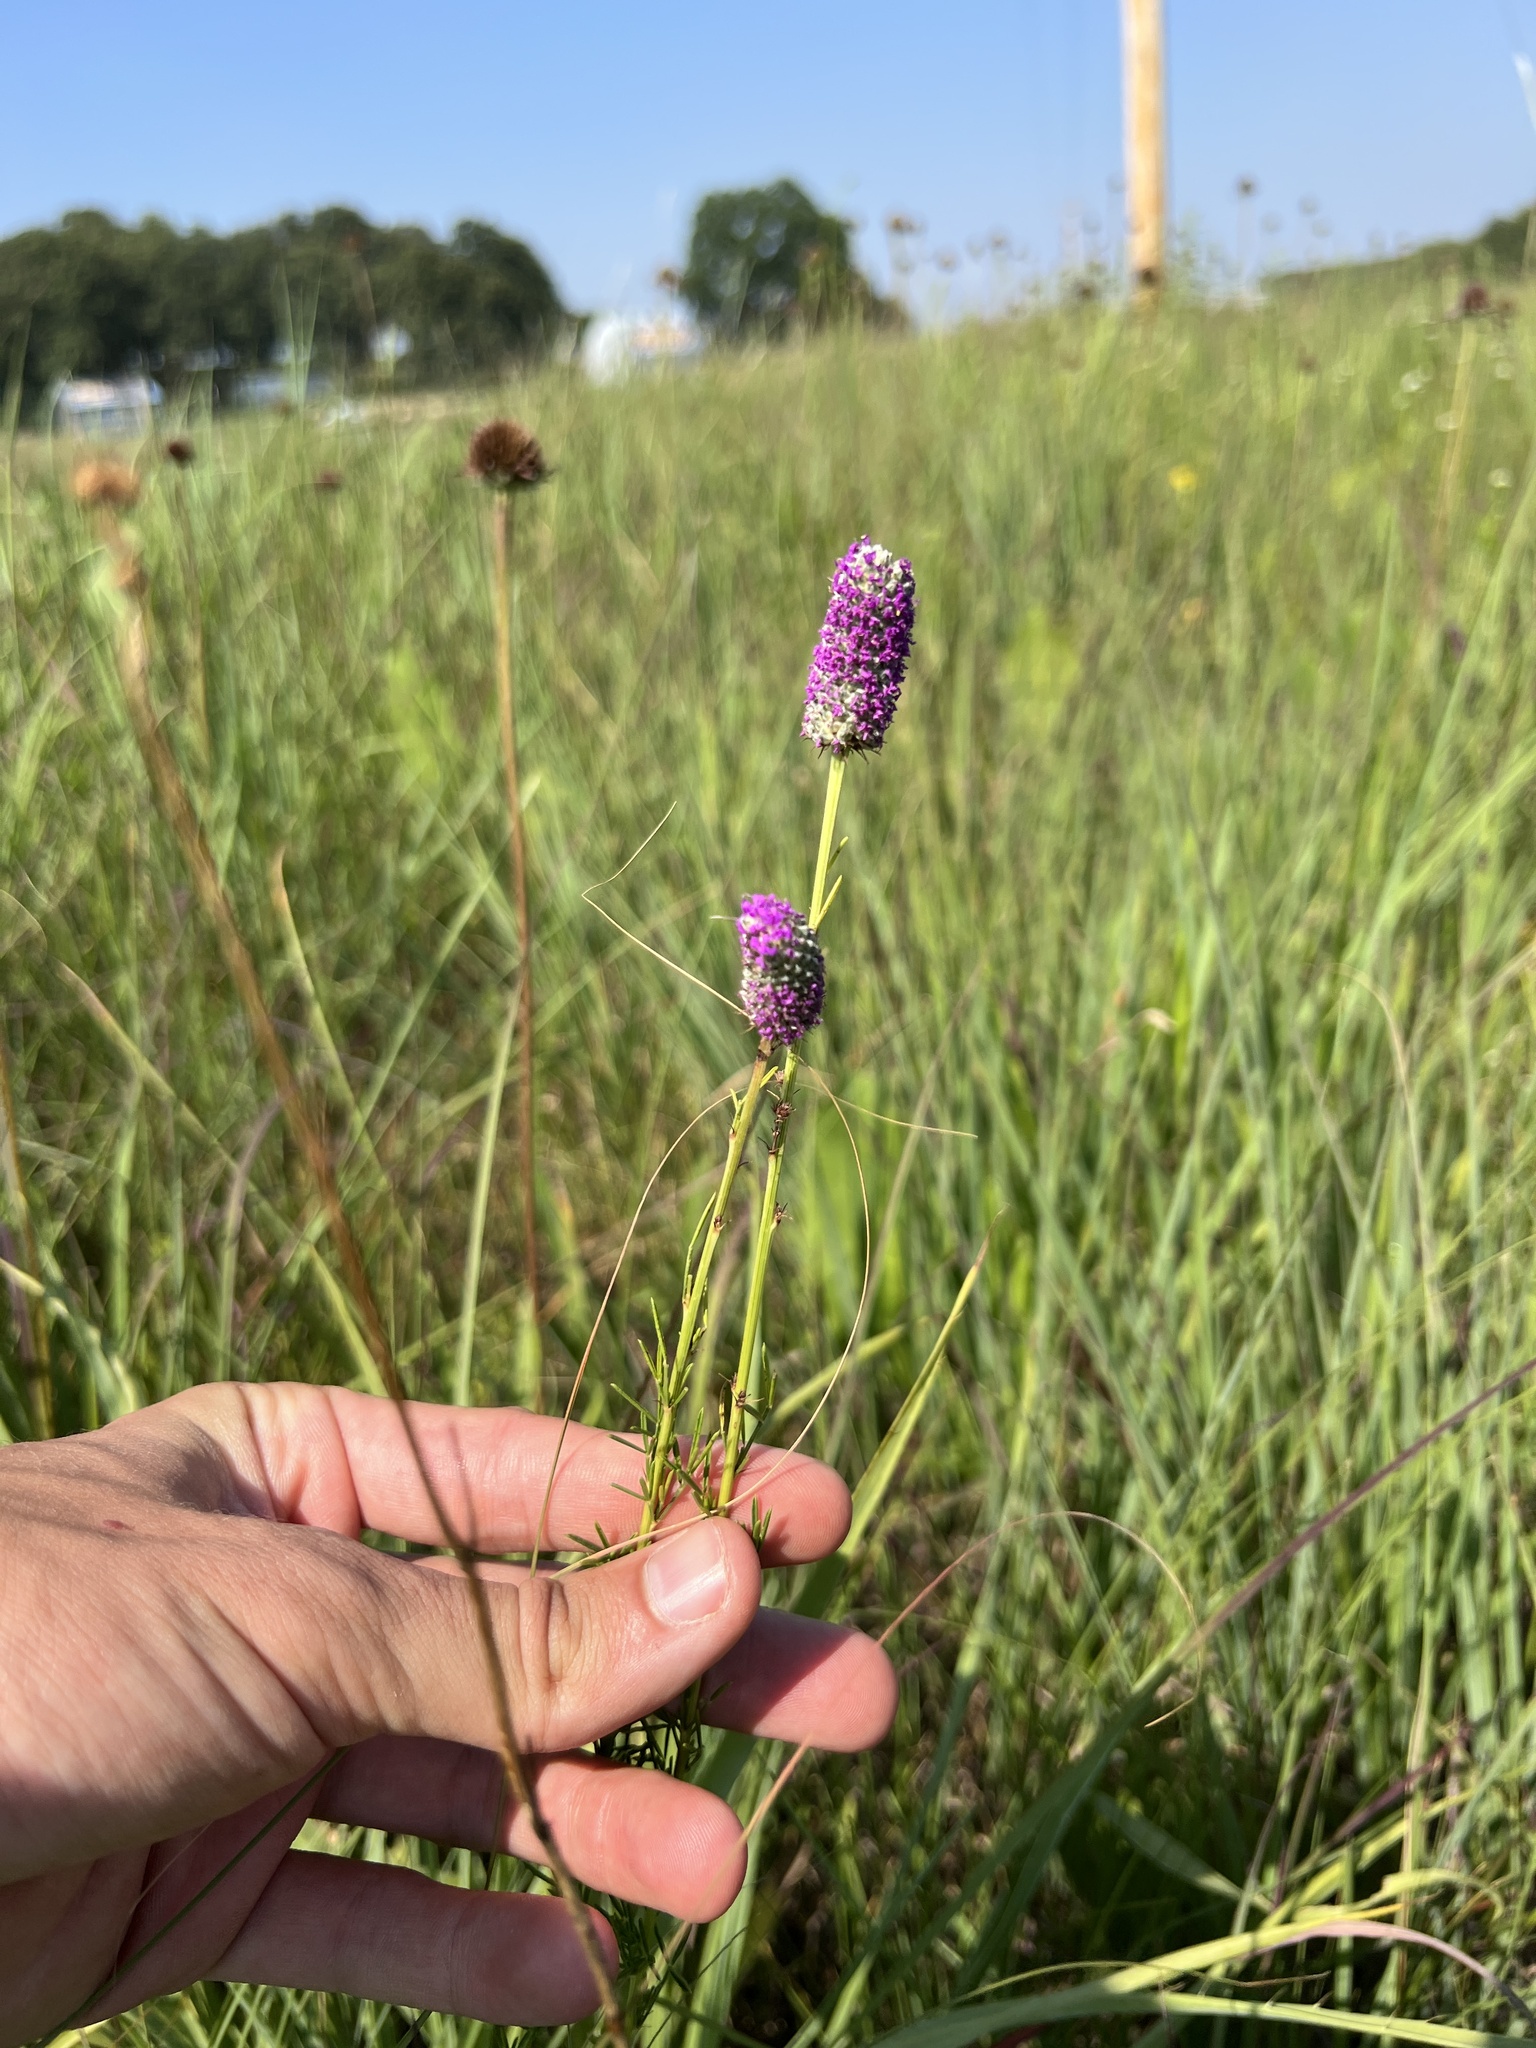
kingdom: Plantae
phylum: Tracheophyta
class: Magnoliopsida
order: Fabales
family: Fabaceae
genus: Dalea
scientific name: Dalea purpurea
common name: Purple prairie-clover
